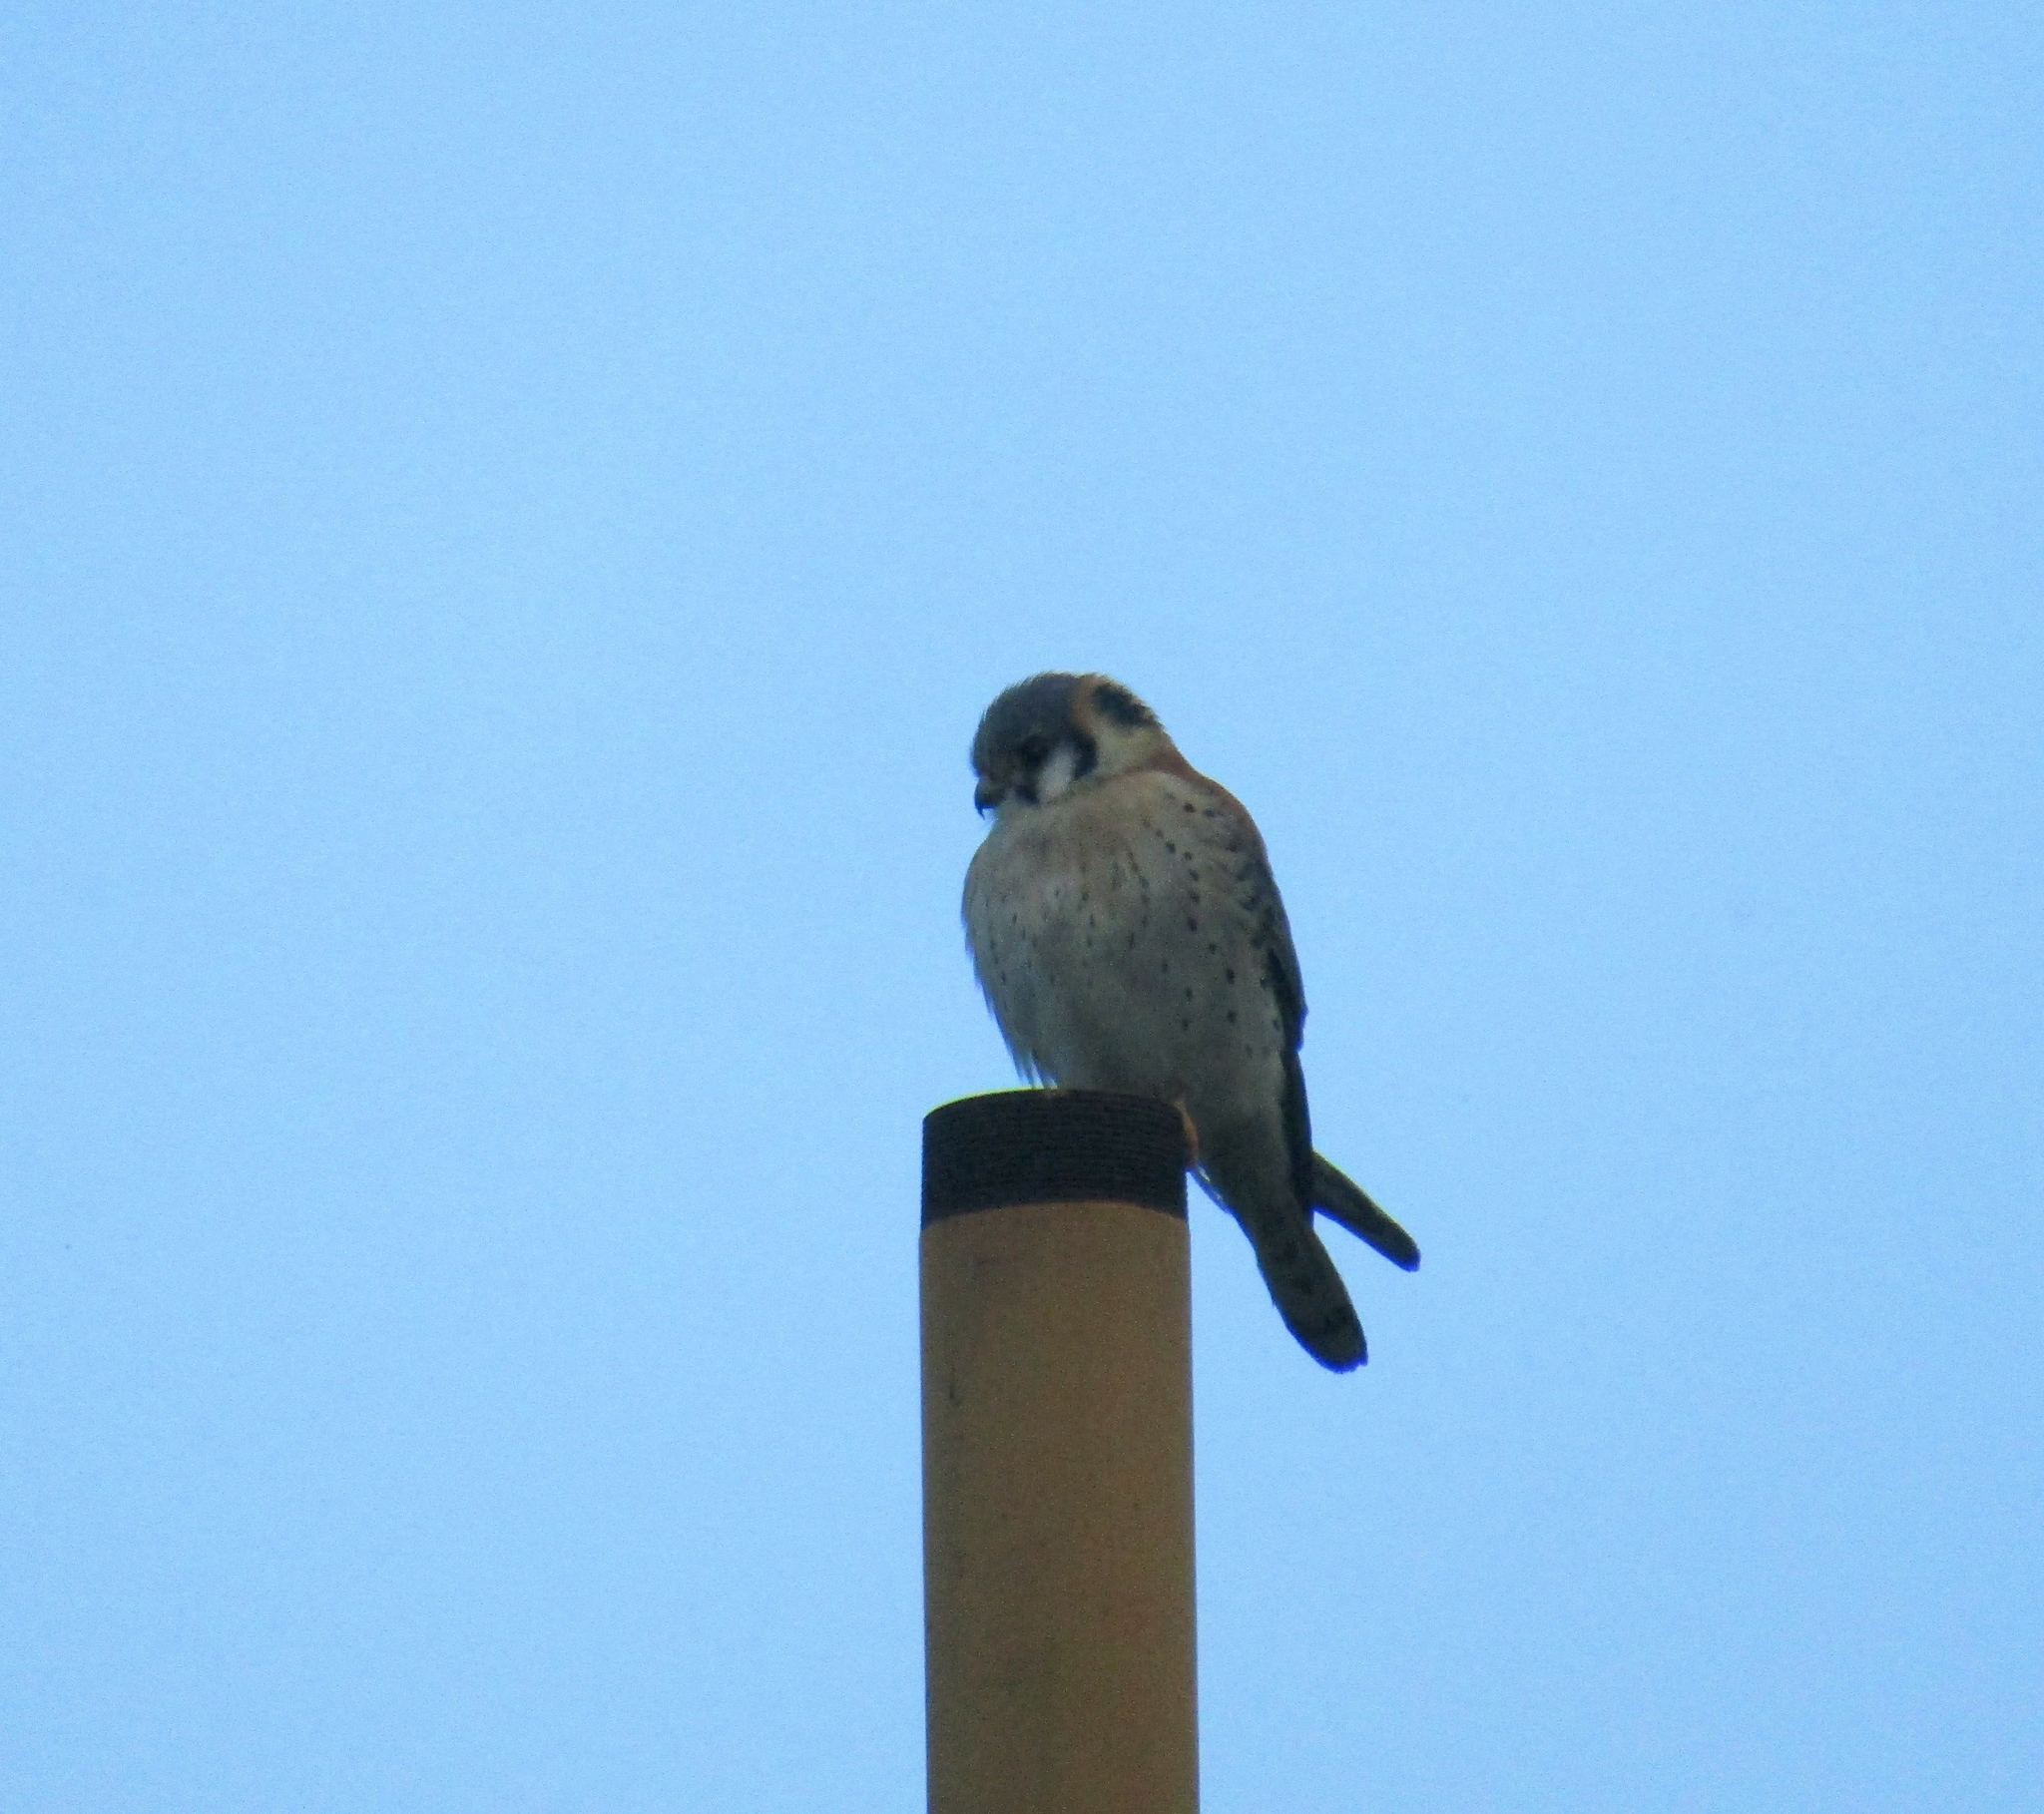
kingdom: Animalia
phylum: Chordata
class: Aves
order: Falconiformes
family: Falconidae
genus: Falco
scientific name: Falco sparverius
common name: American kestrel
